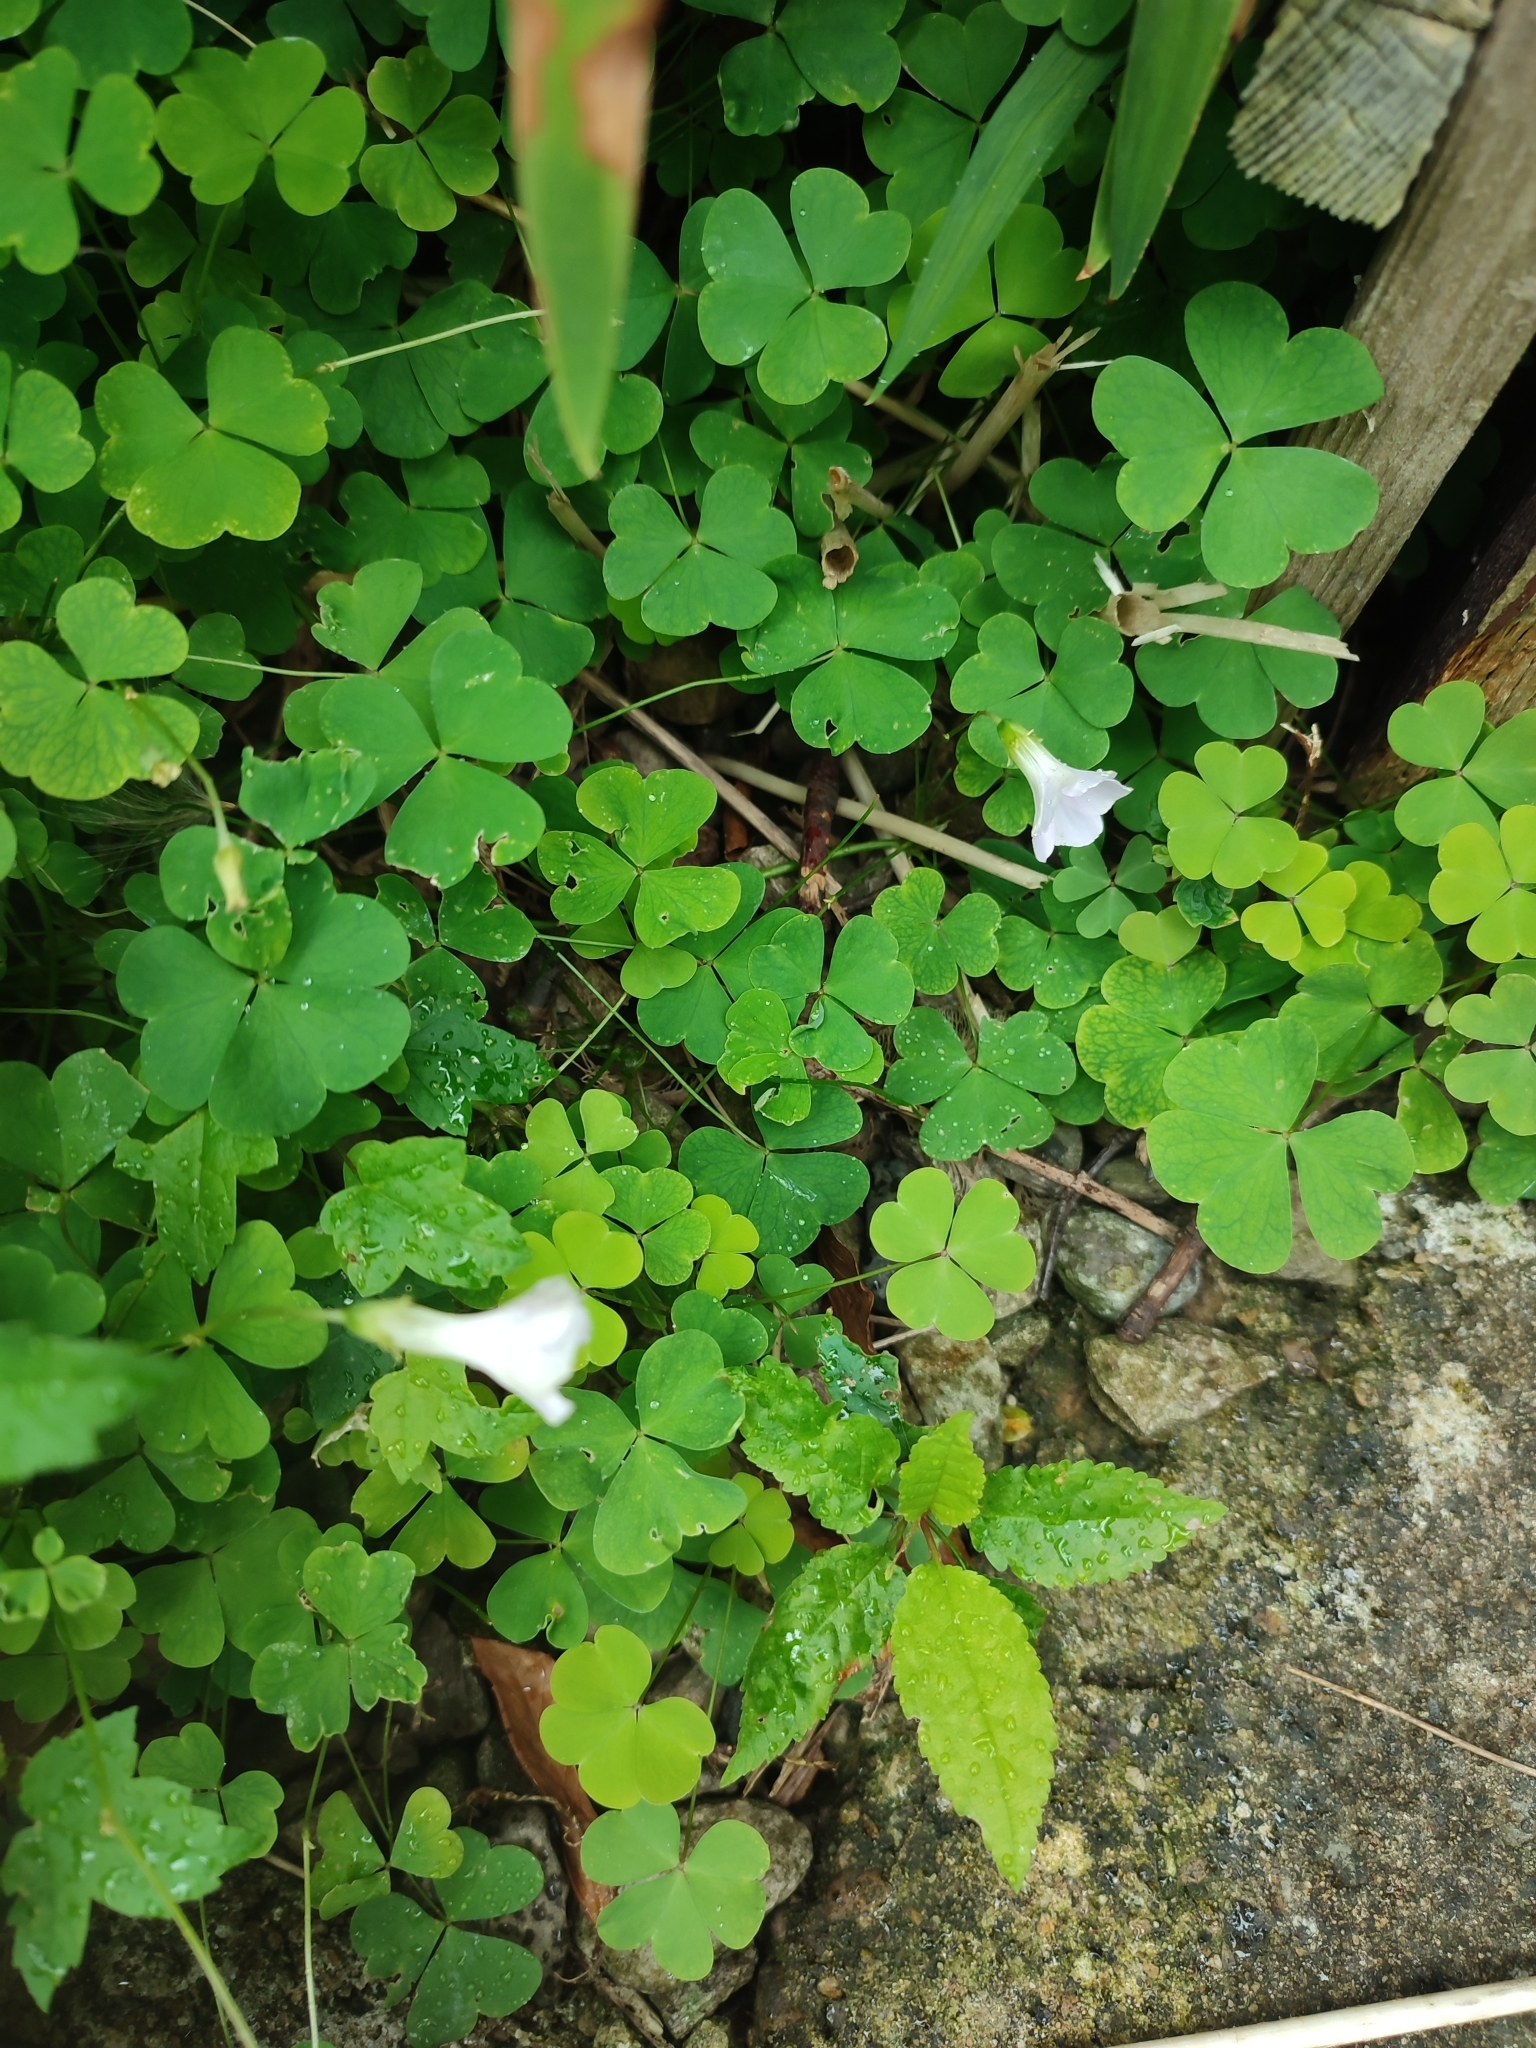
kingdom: Plantae
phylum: Tracheophyta
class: Magnoliopsida
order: Oxalidales
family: Oxalidaceae
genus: Oxalis
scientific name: Oxalis incarnata
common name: Pale pink-sorrel
